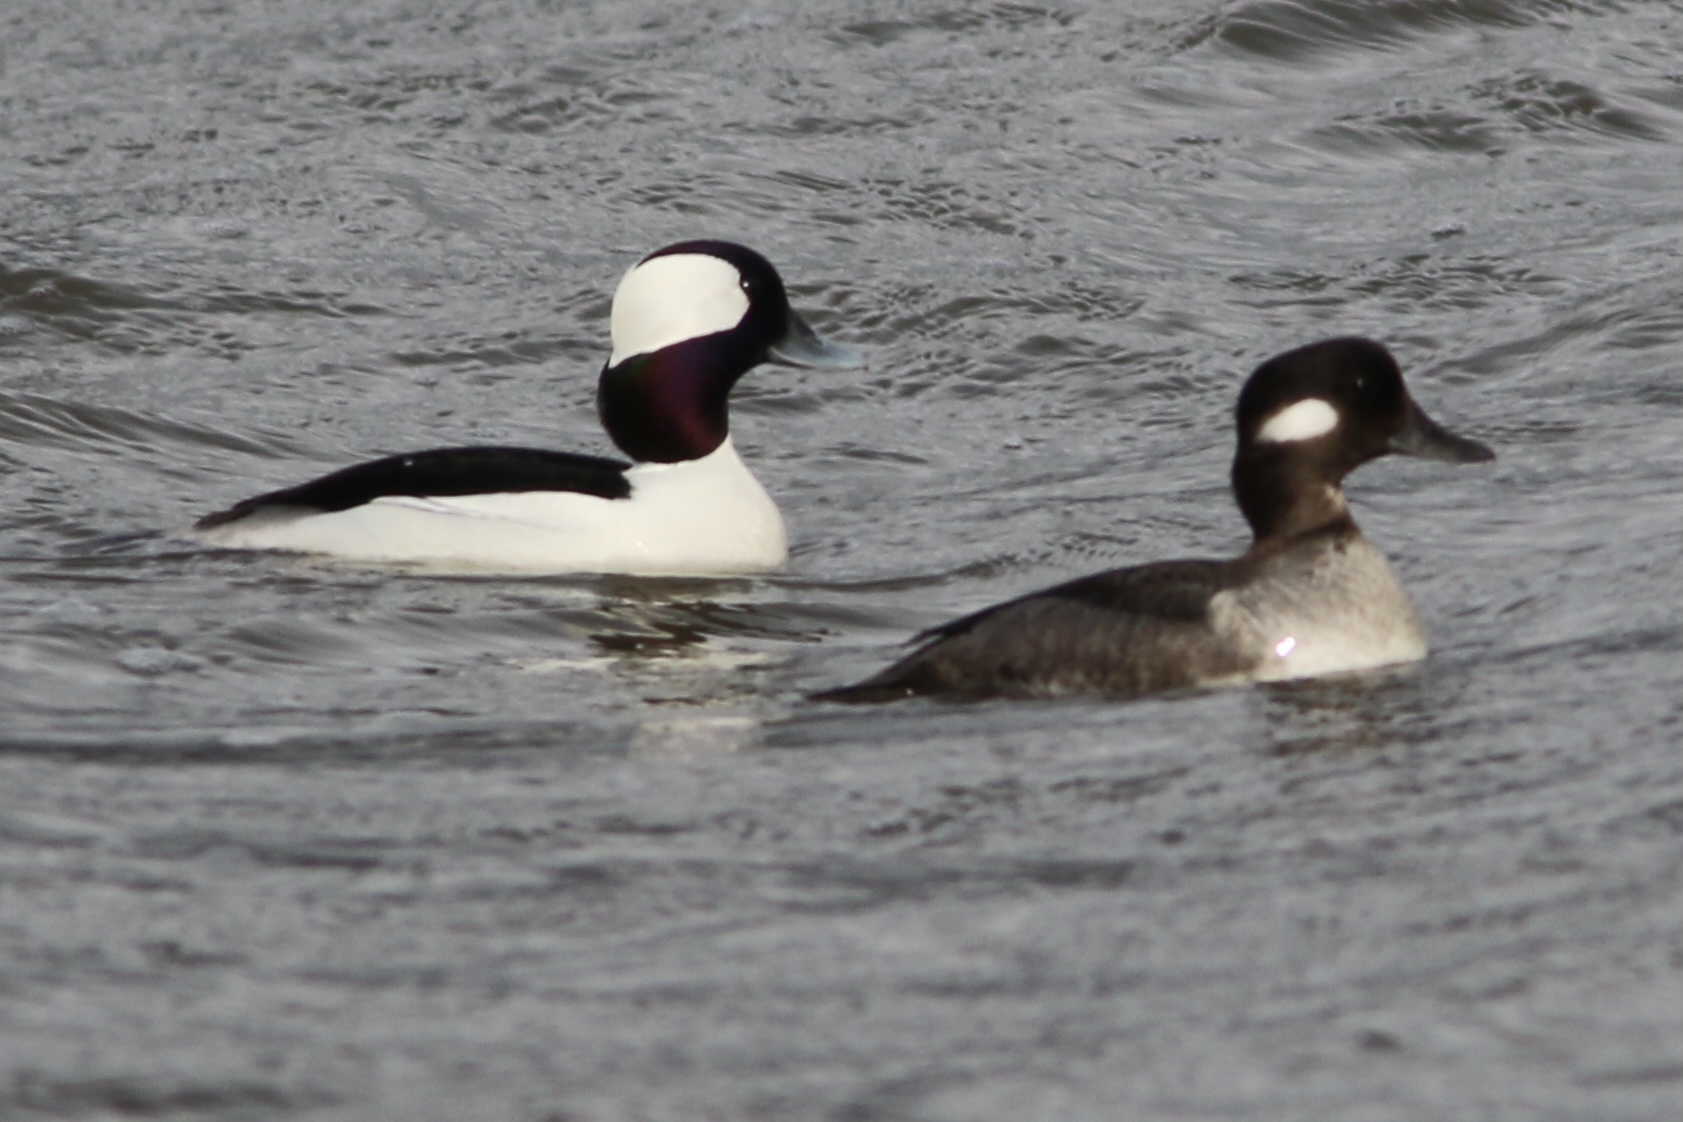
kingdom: Animalia
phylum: Chordata
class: Aves
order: Anseriformes
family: Anatidae
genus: Bucephala
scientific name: Bucephala albeola
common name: Bufflehead
